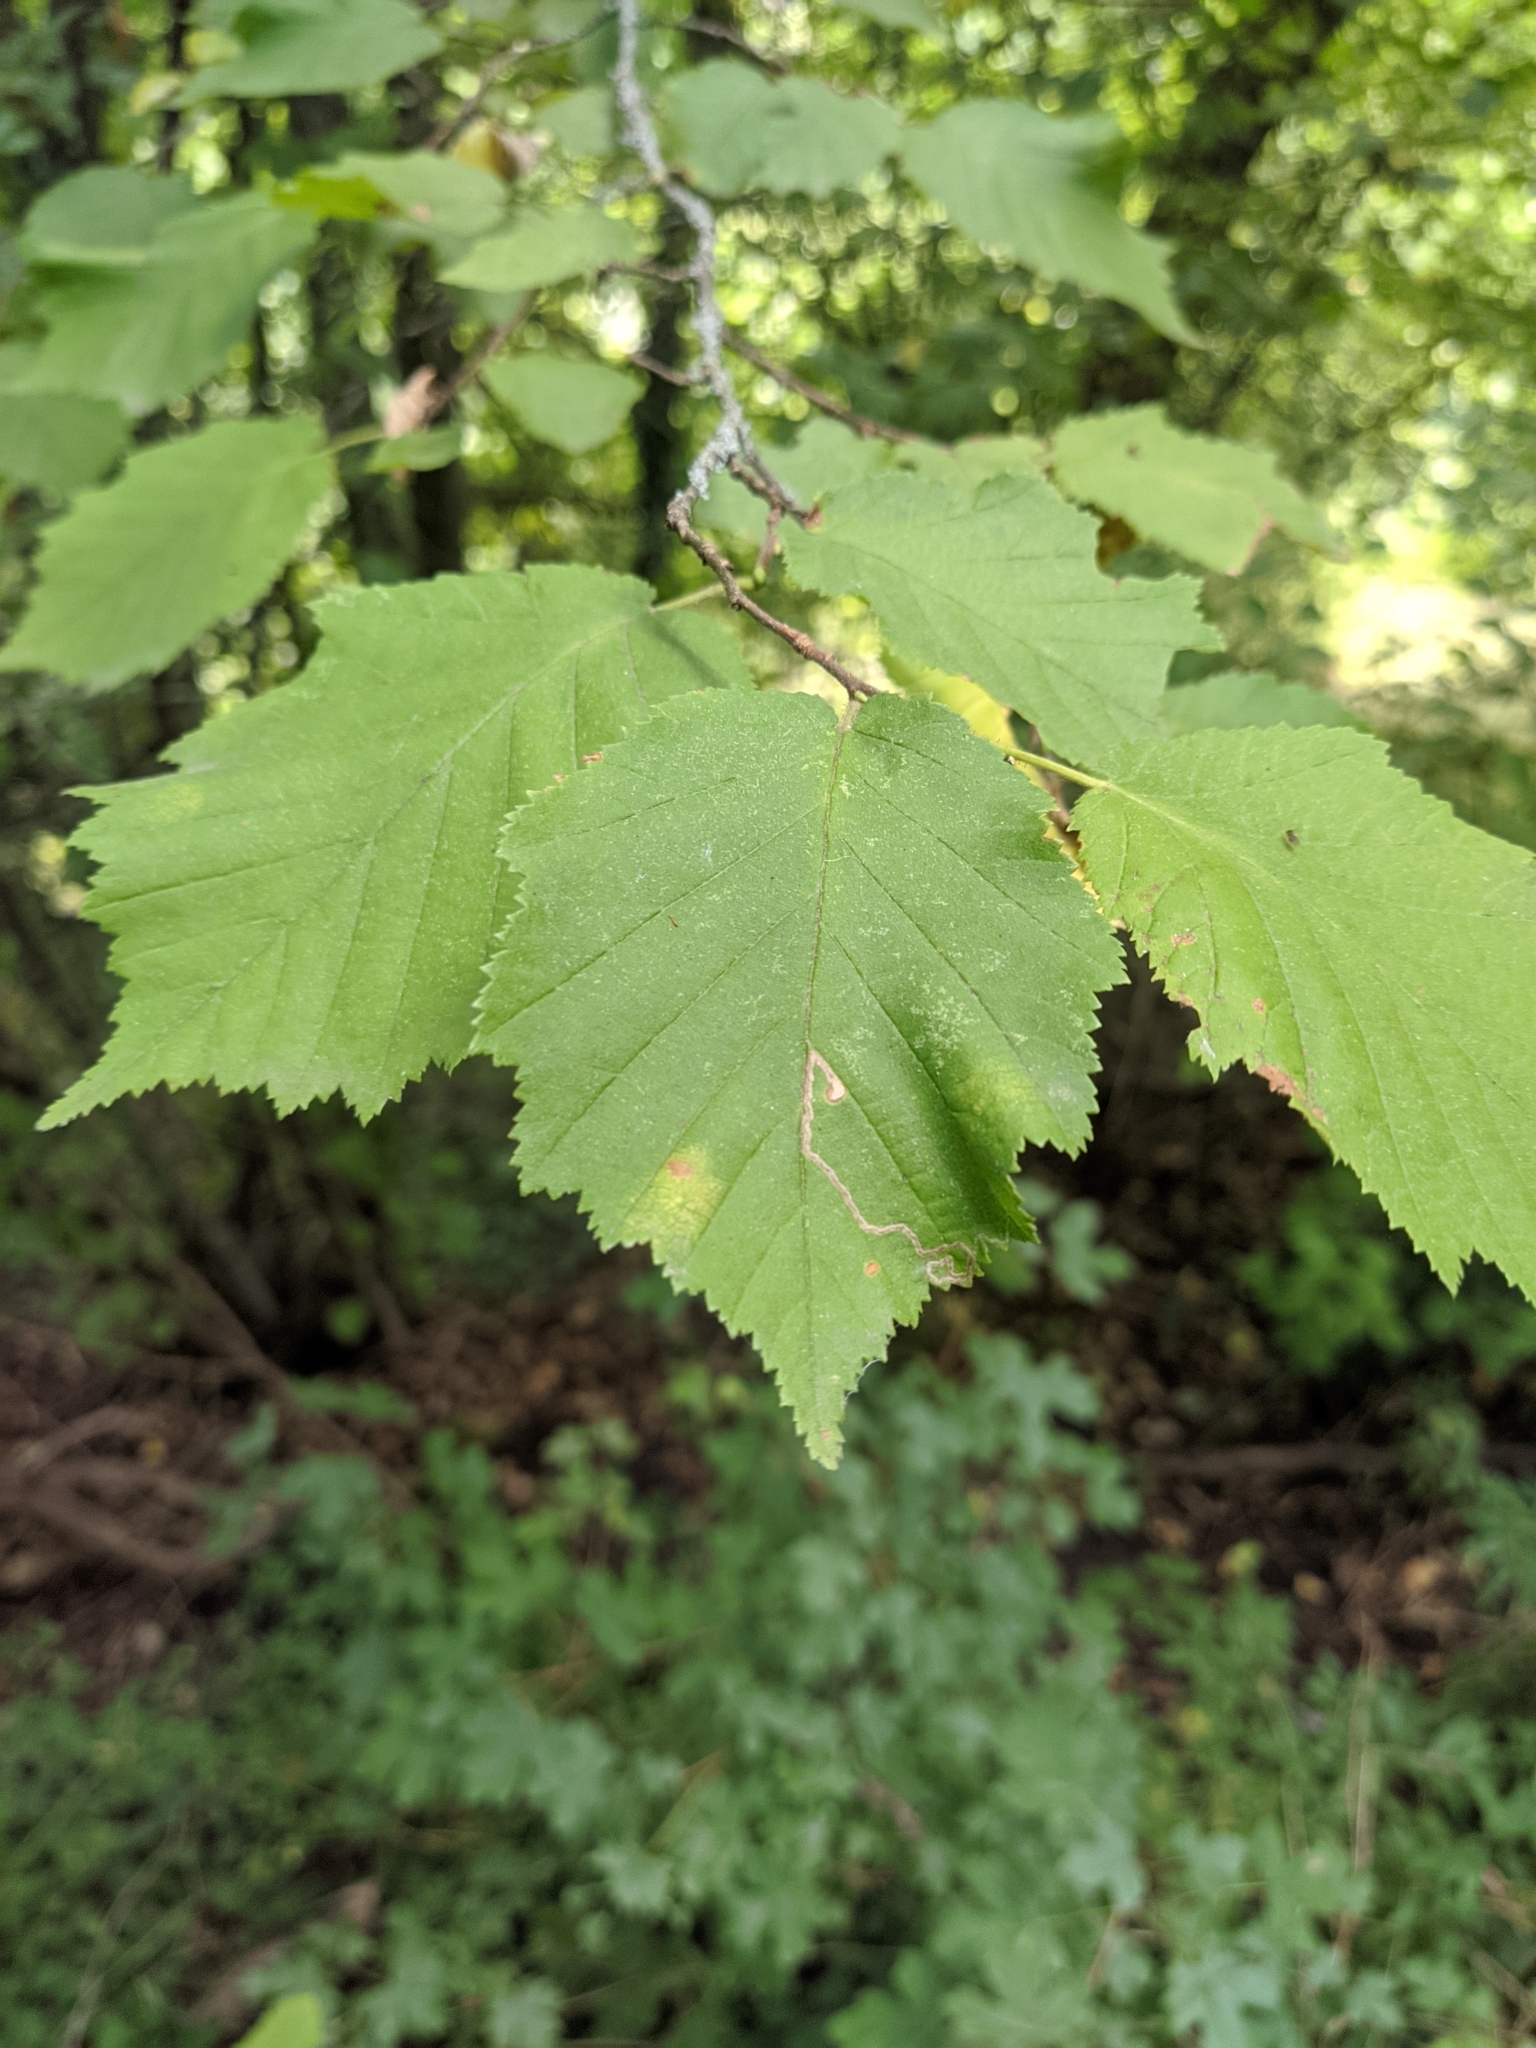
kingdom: Plantae
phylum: Tracheophyta
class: Magnoliopsida
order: Fagales
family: Betulaceae
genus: Corylus
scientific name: Corylus avellana
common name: European hazel
